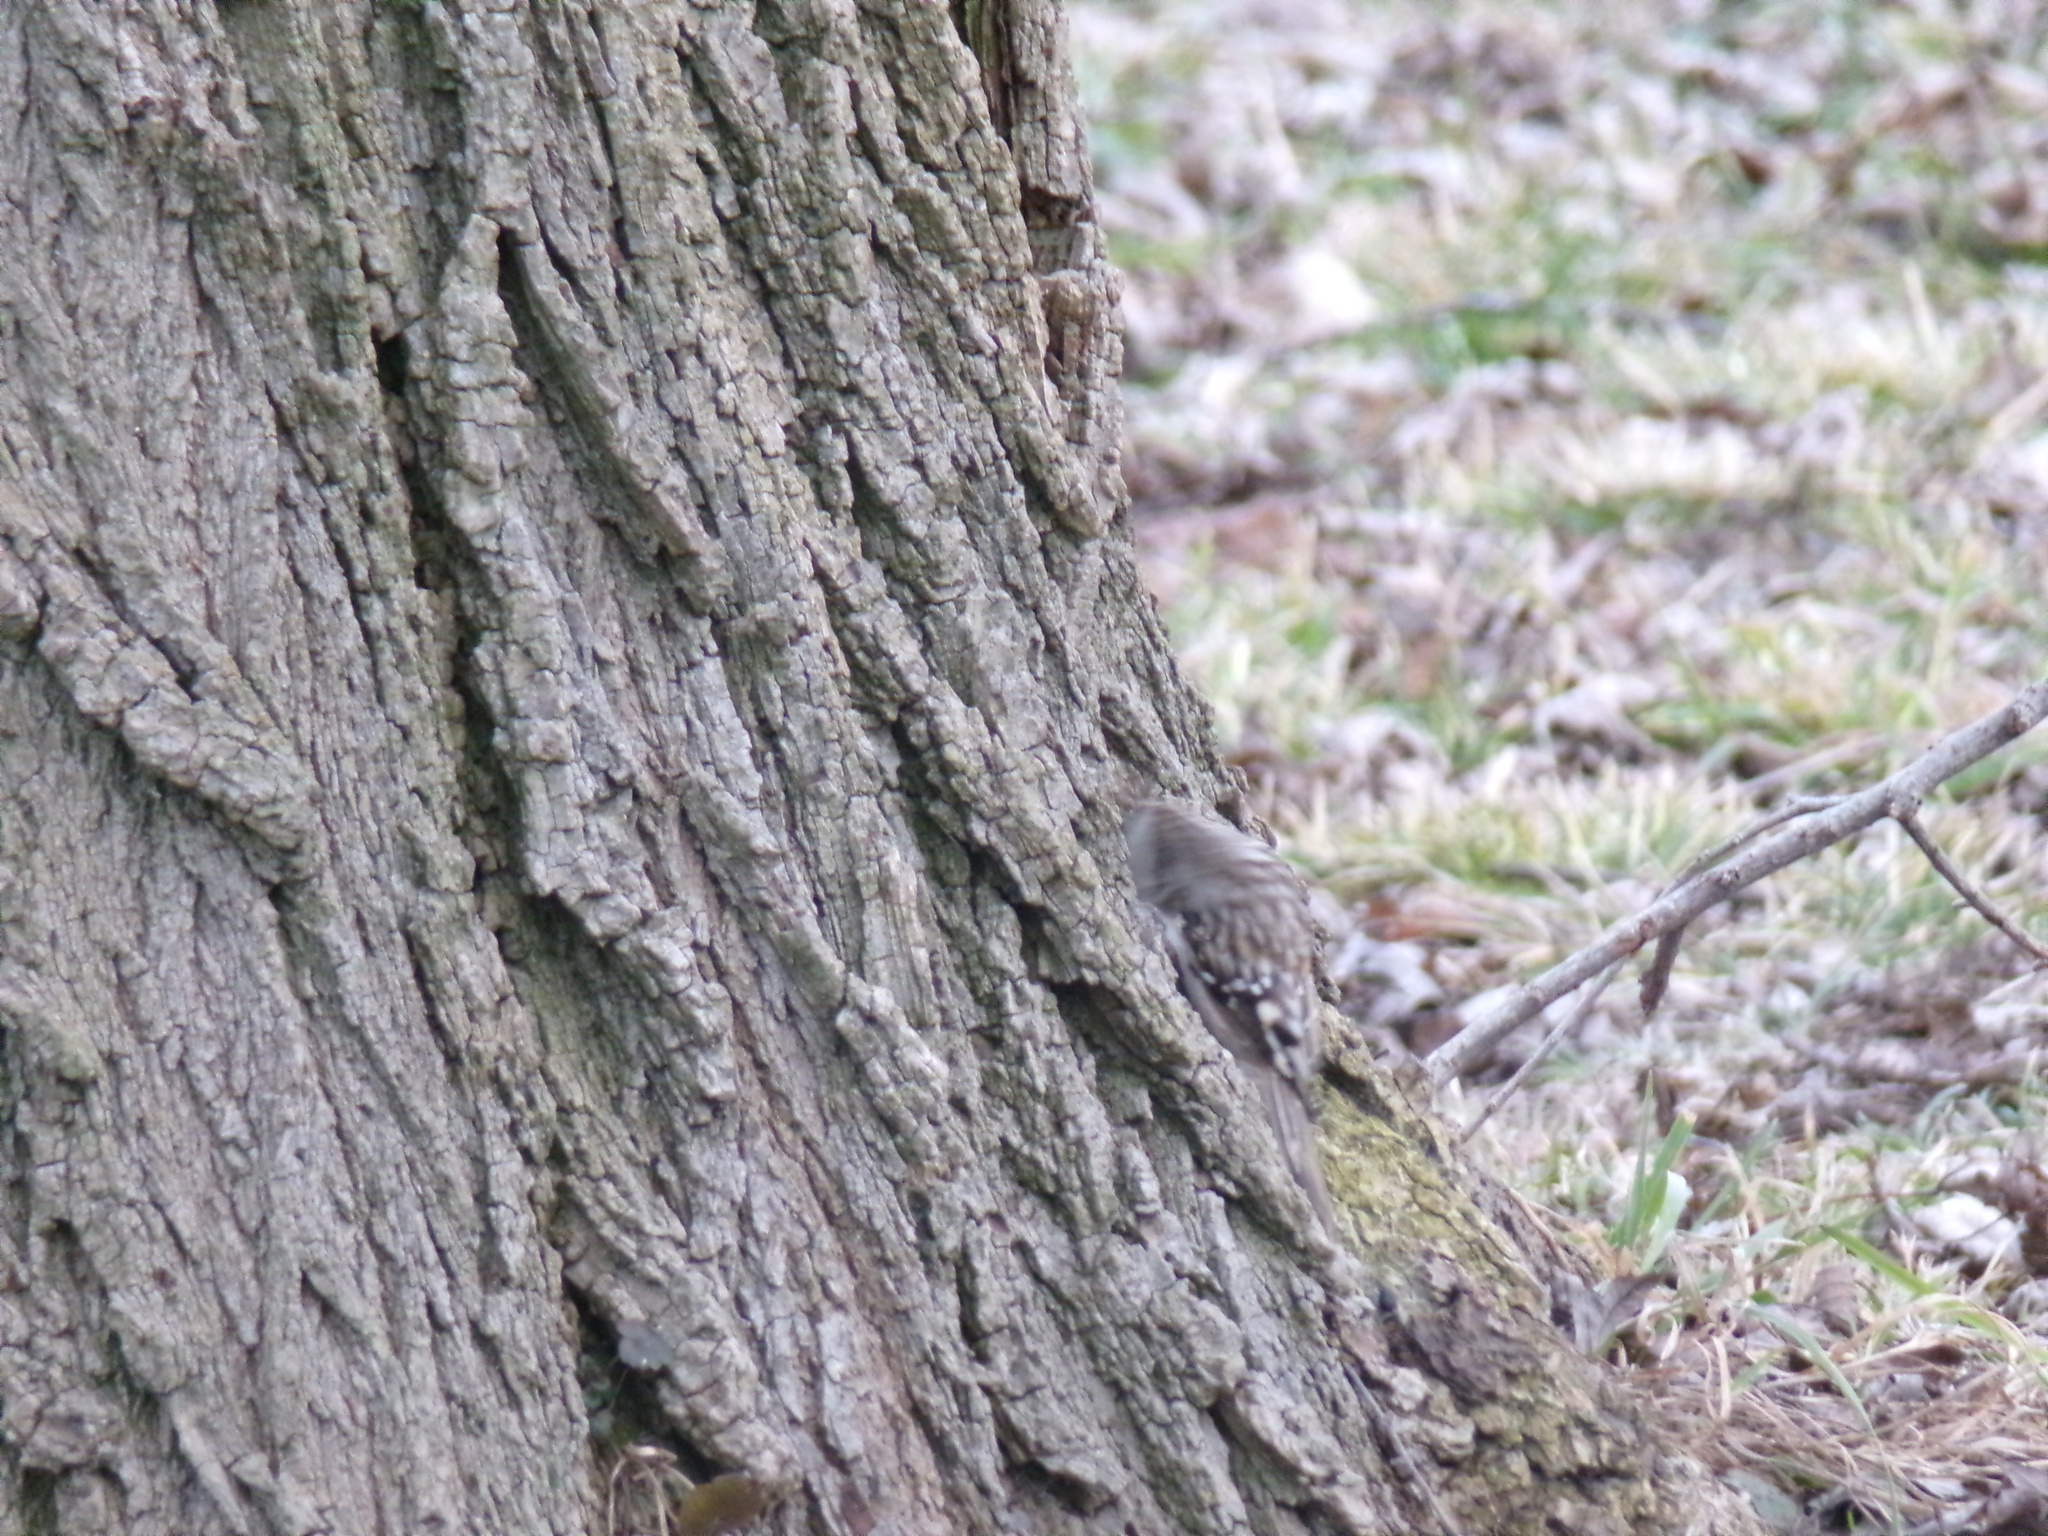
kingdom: Animalia
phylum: Chordata
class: Aves
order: Passeriformes
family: Certhiidae
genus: Certhia
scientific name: Certhia americana
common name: Brown creeper
